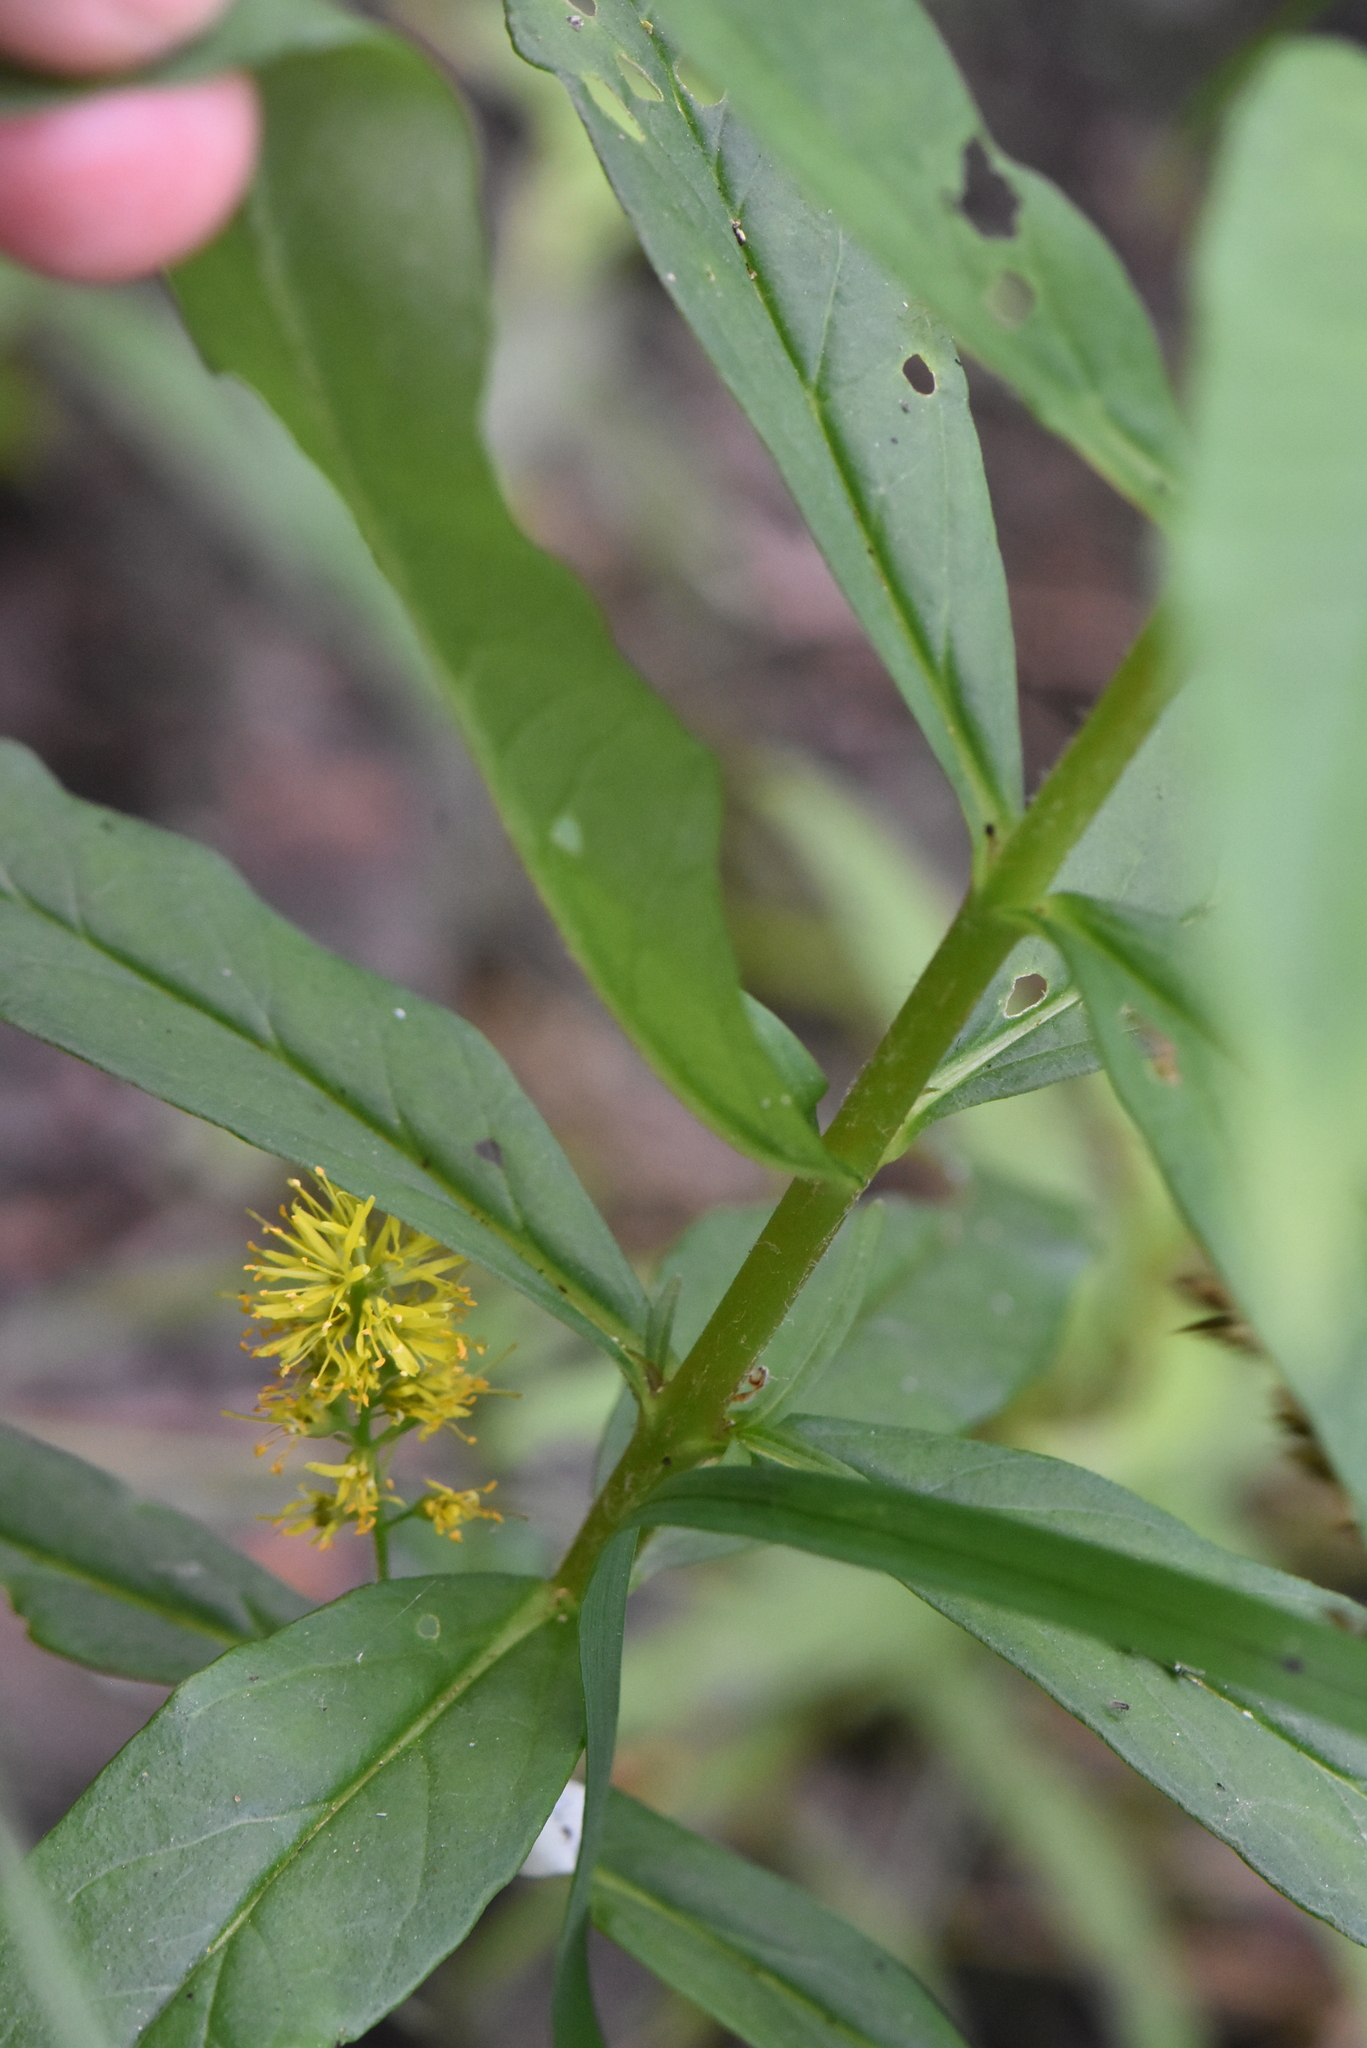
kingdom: Plantae
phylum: Tracheophyta
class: Magnoliopsida
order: Ericales
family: Primulaceae
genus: Lysimachia
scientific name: Lysimachia thyrsiflora
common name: Tufted loosestrife
